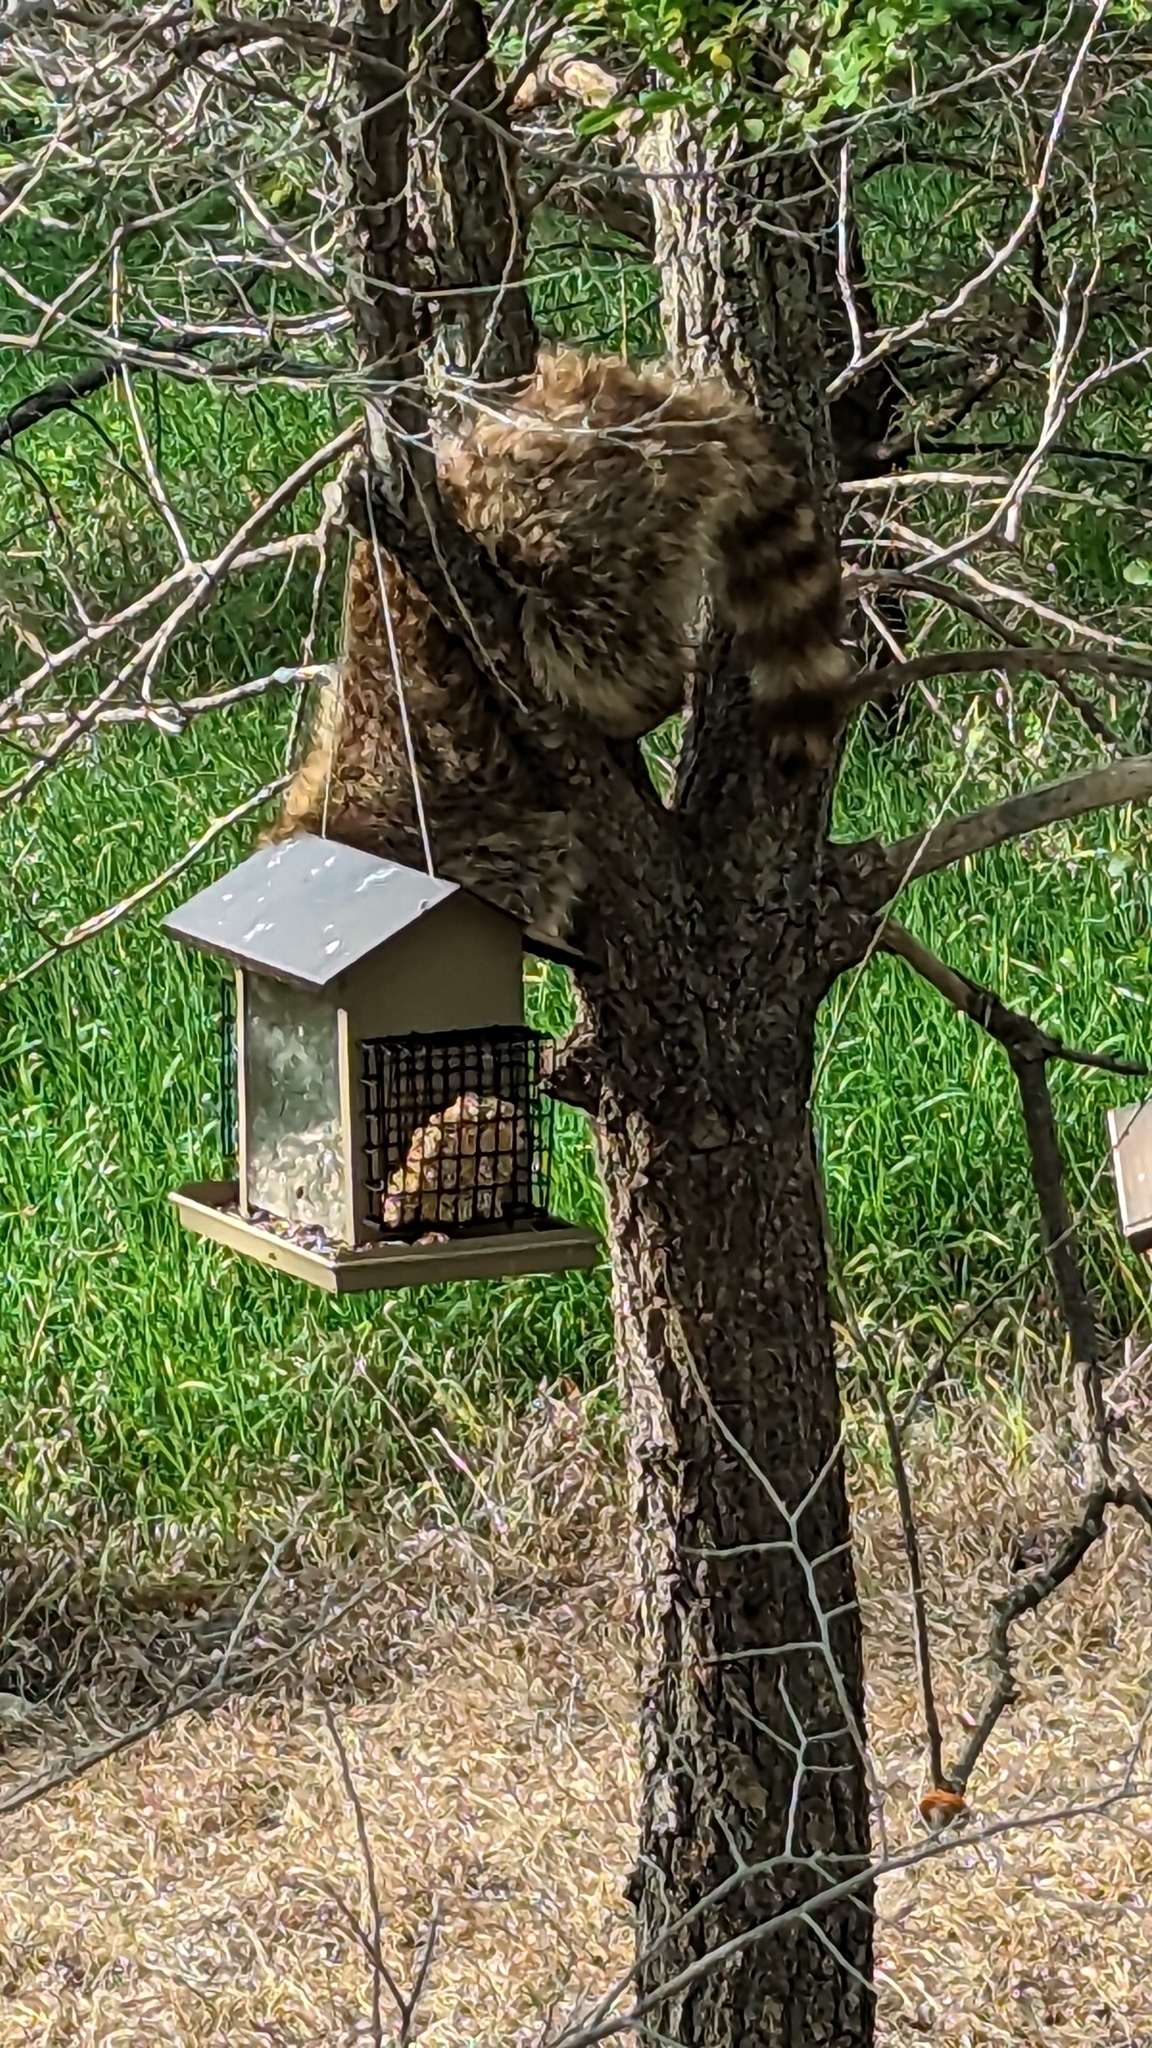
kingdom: Animalia
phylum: Chordata
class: Mammalia
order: Carnivora
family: Procyonidae
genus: Procyon
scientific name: Procyon lotor
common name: Raccoon
